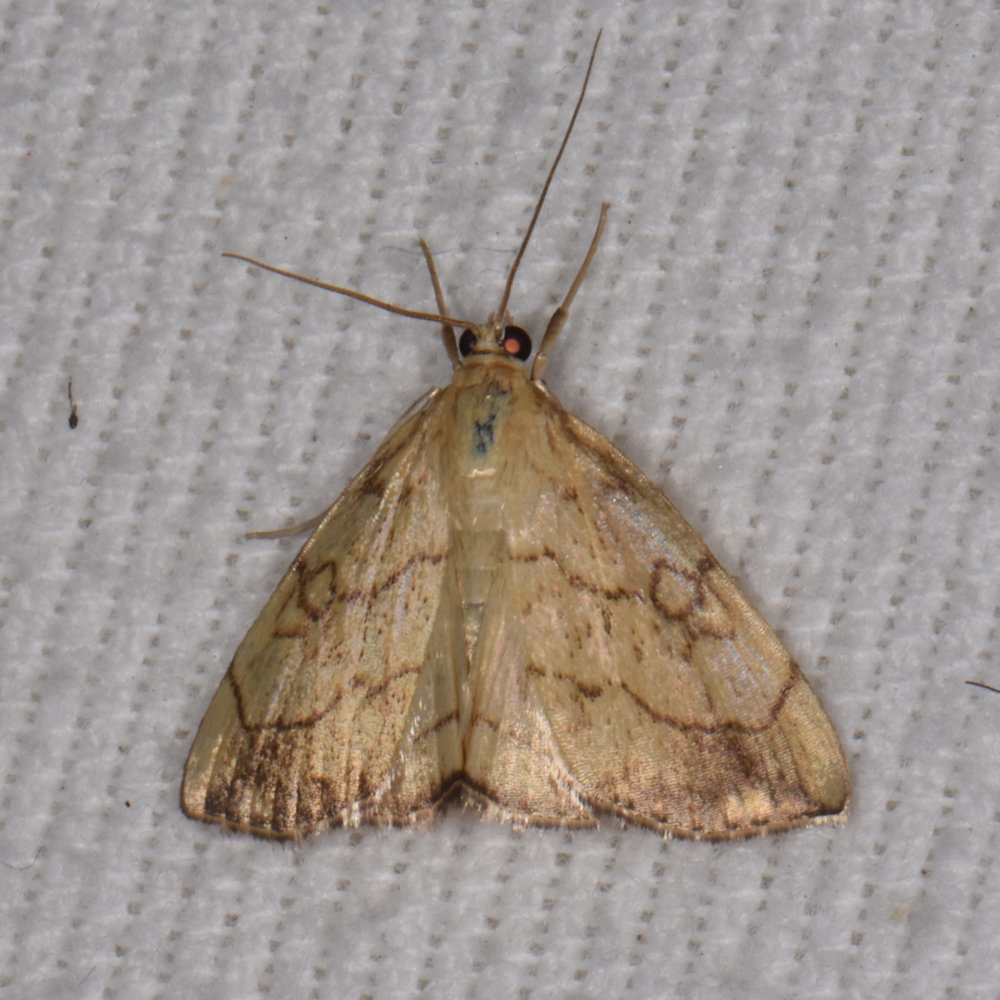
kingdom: Animalia
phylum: Arthropoda
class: Insecta
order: Lepidoptera
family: Crambidae
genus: Evergestis
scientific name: Evergestis pallidata
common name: Chequered pearl
